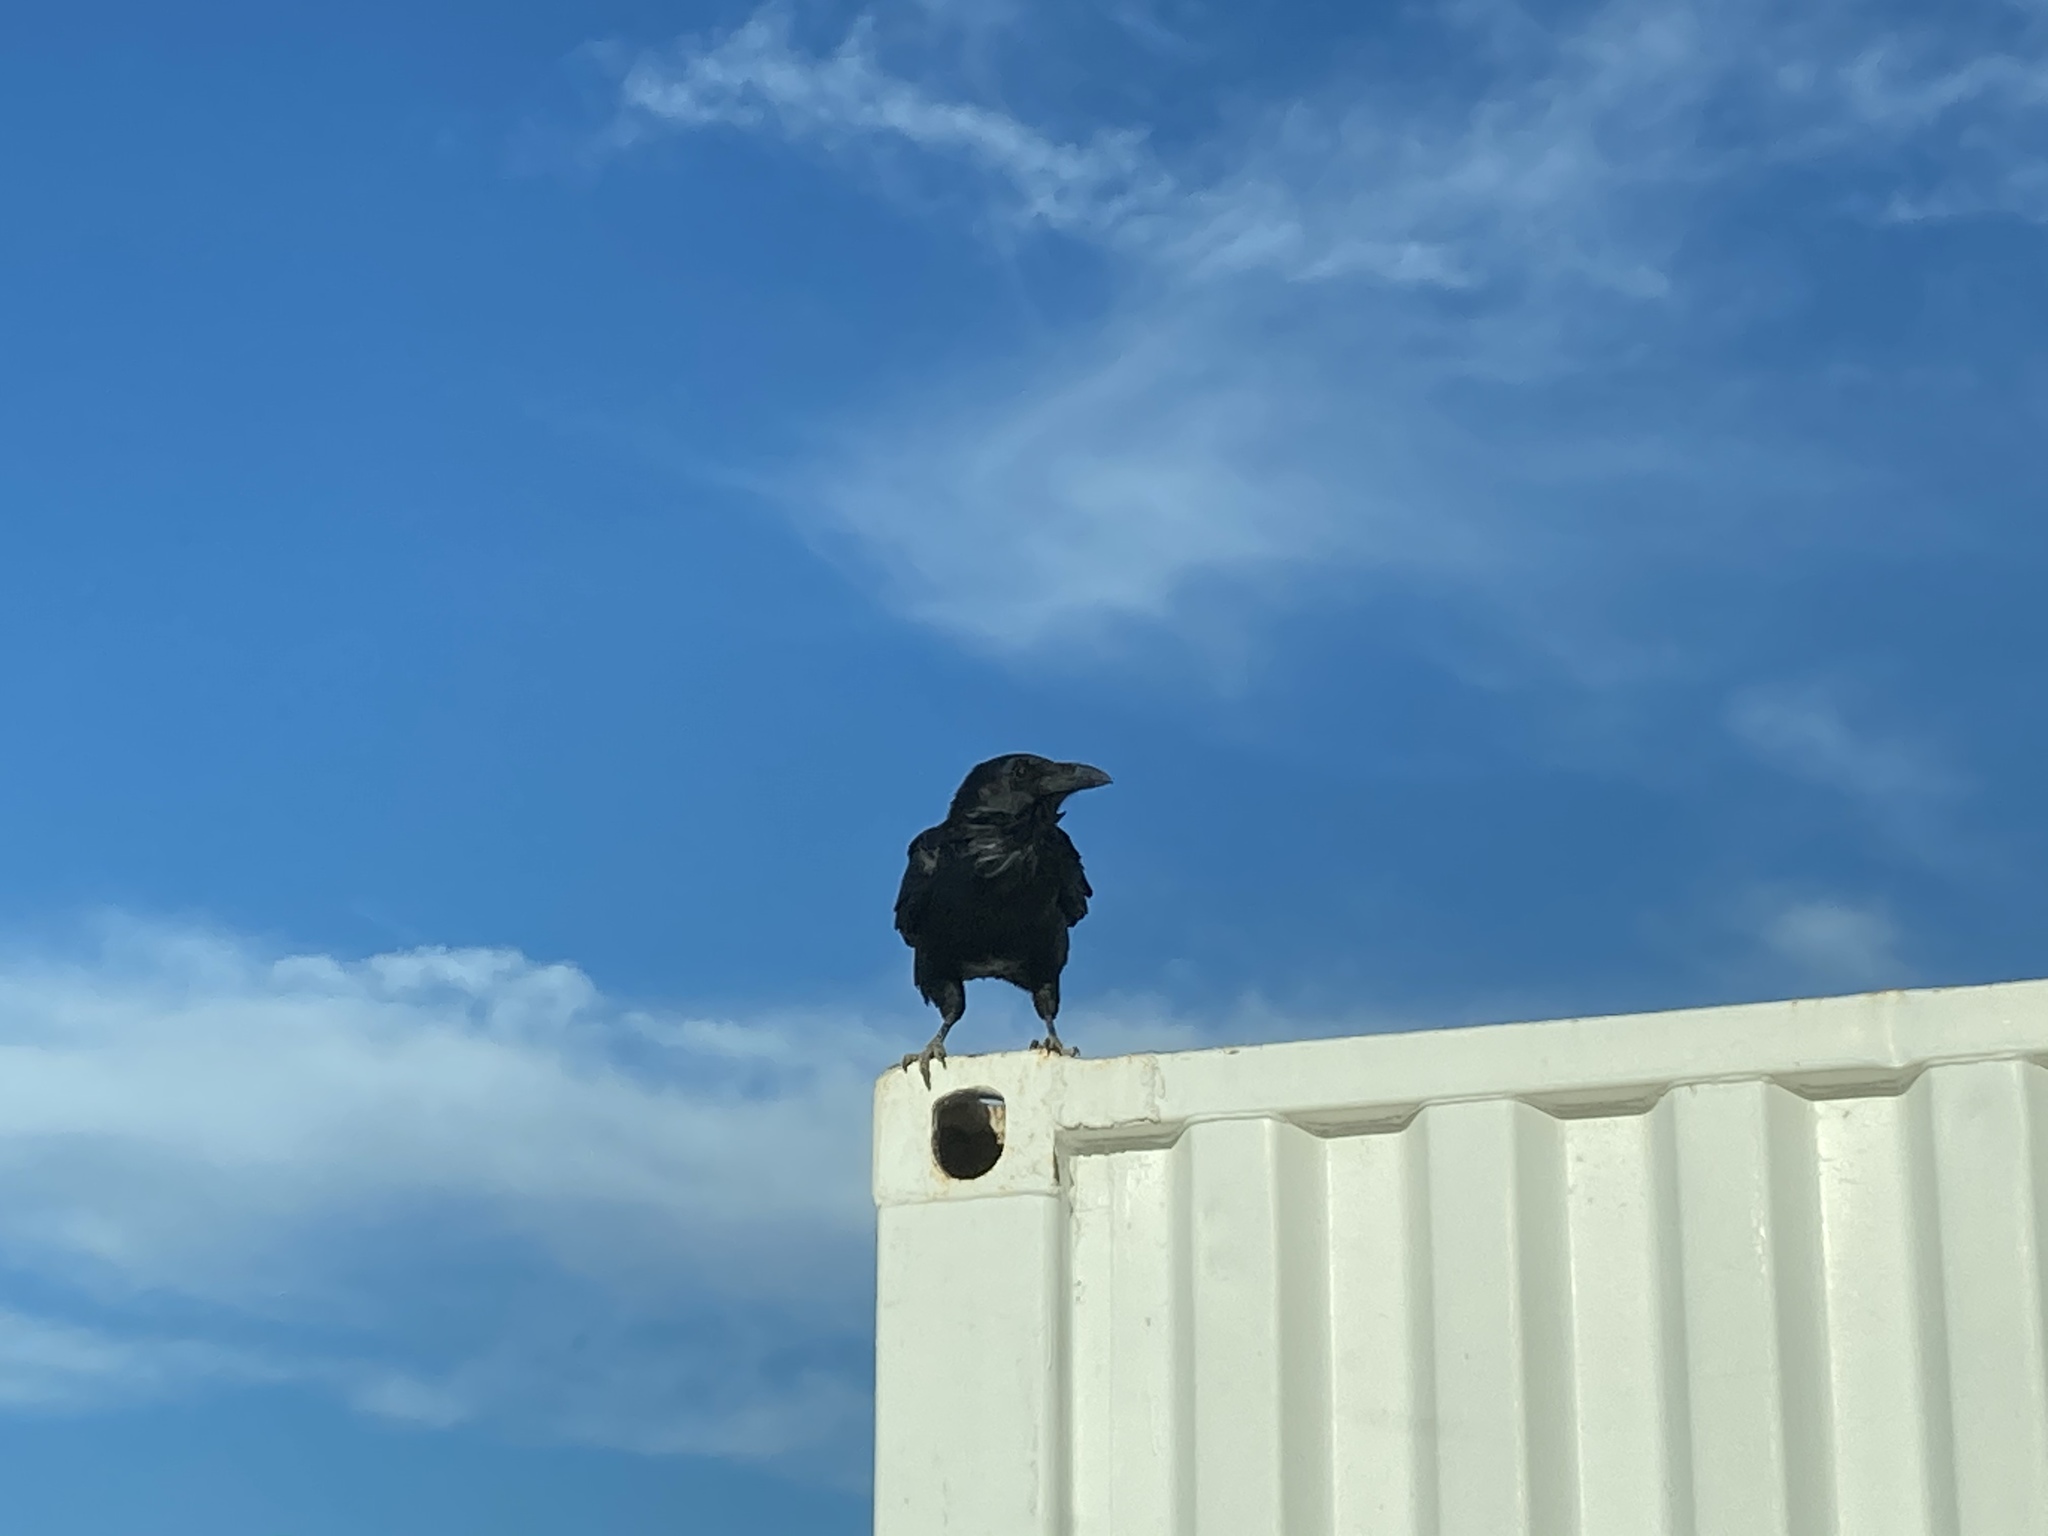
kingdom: Animalia
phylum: Chordata
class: Aves
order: Passeriformes
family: Corvidae
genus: Corvus
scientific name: Corvus corax
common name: Common raven
